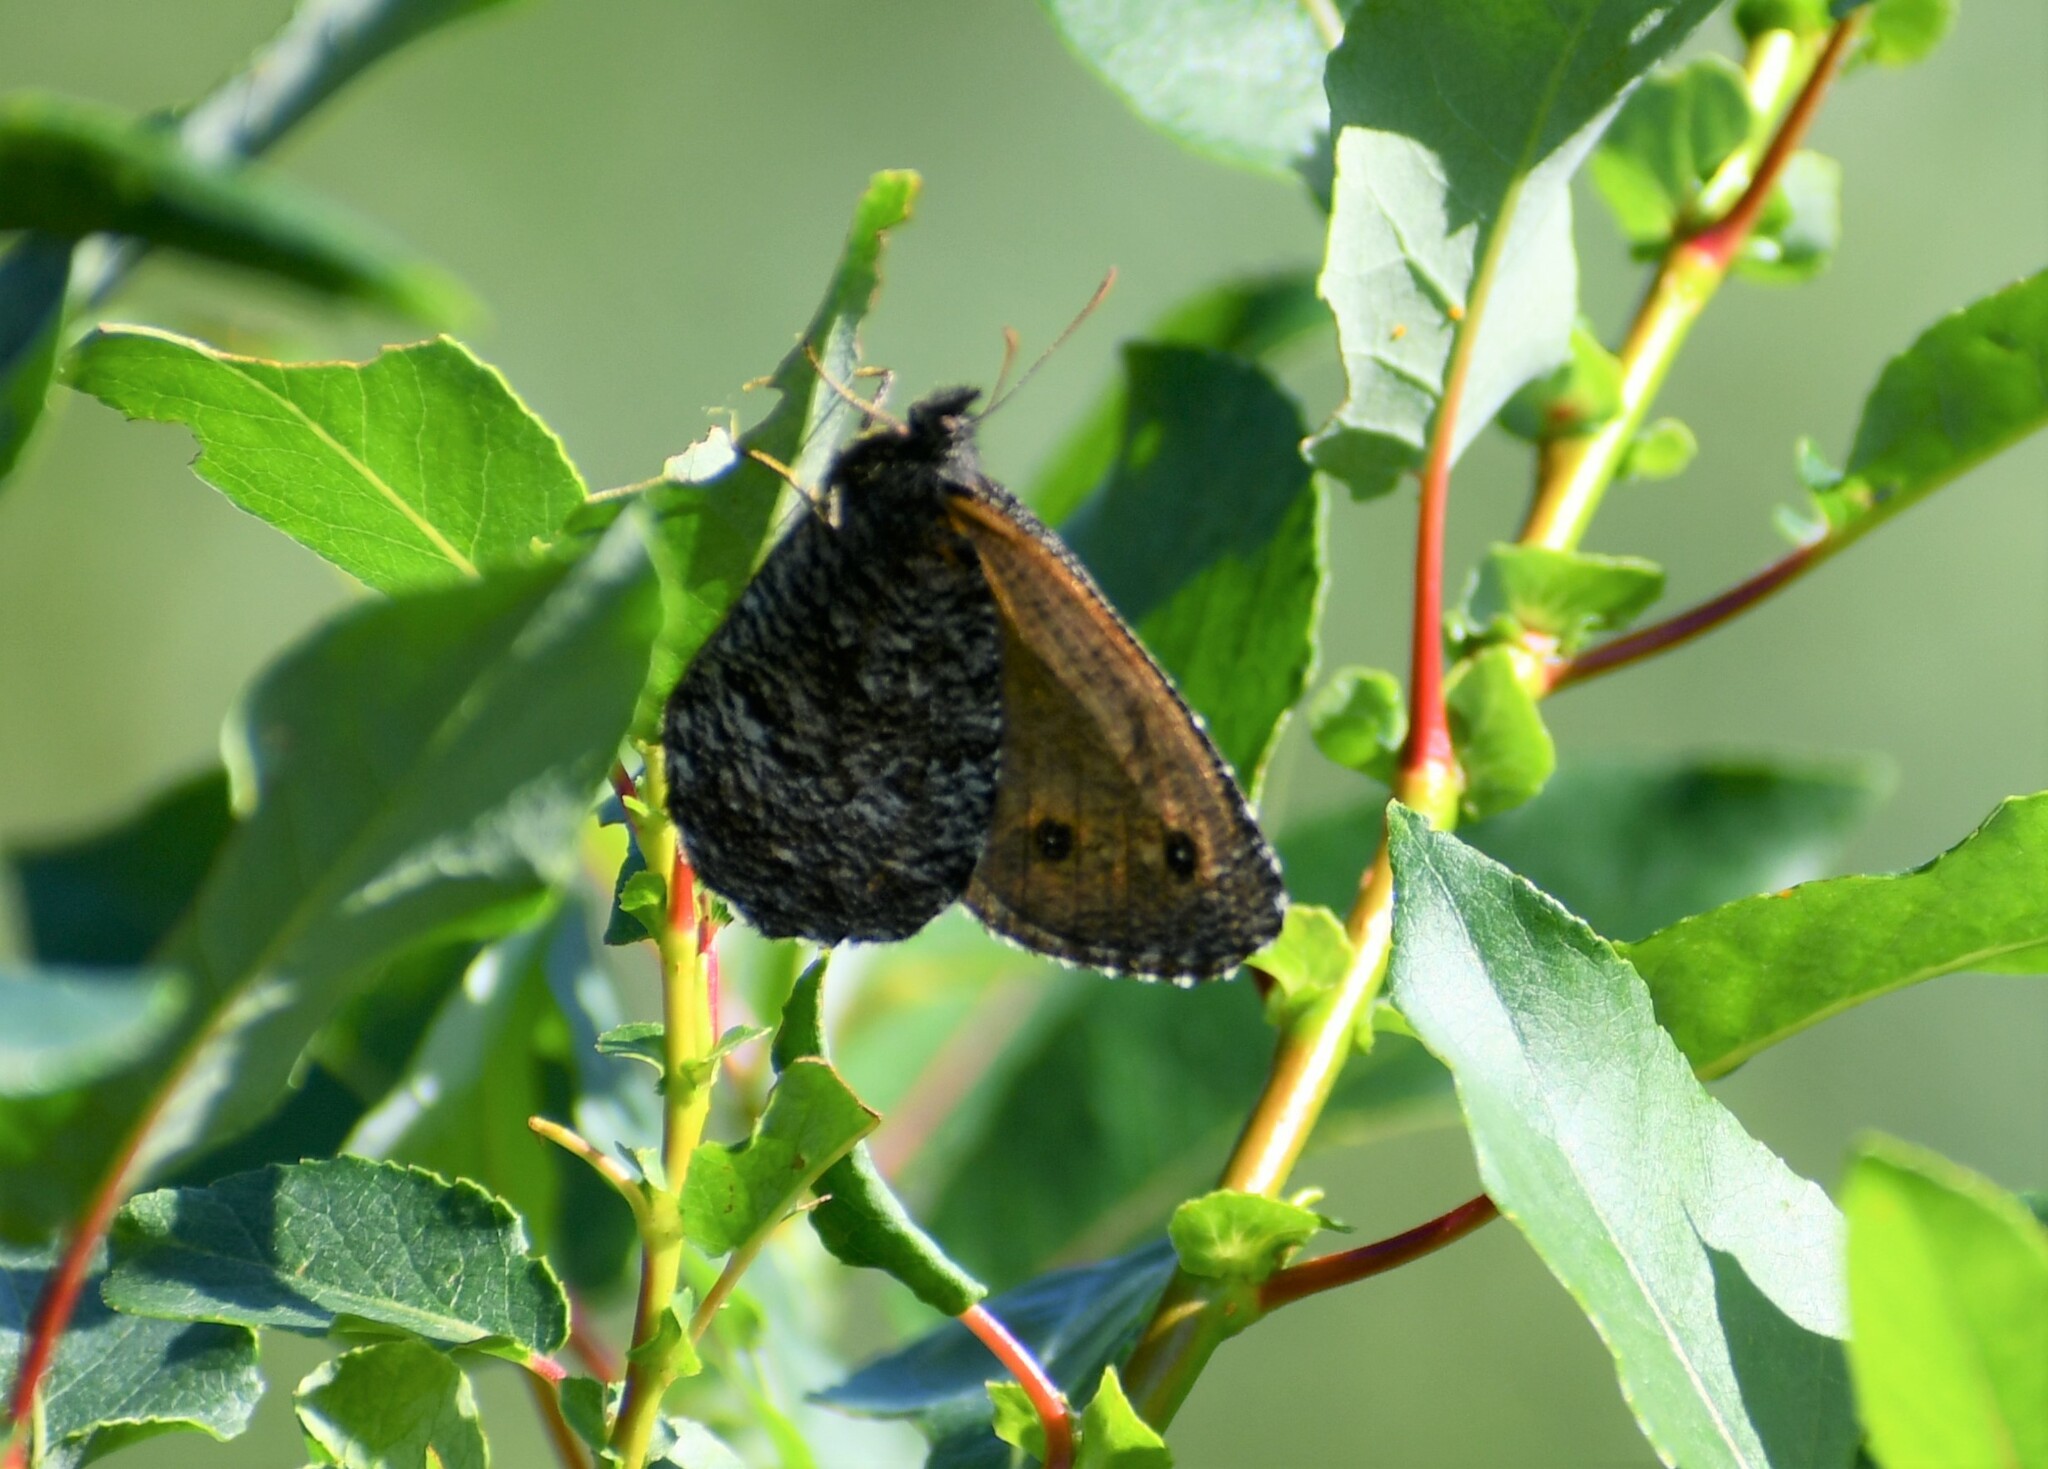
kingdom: Animalia
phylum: Arthropoda
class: Insecta
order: Lepidoptera
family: Nymphalidae
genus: Oeneis
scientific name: Oeneis jutta
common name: Baltic grayling
